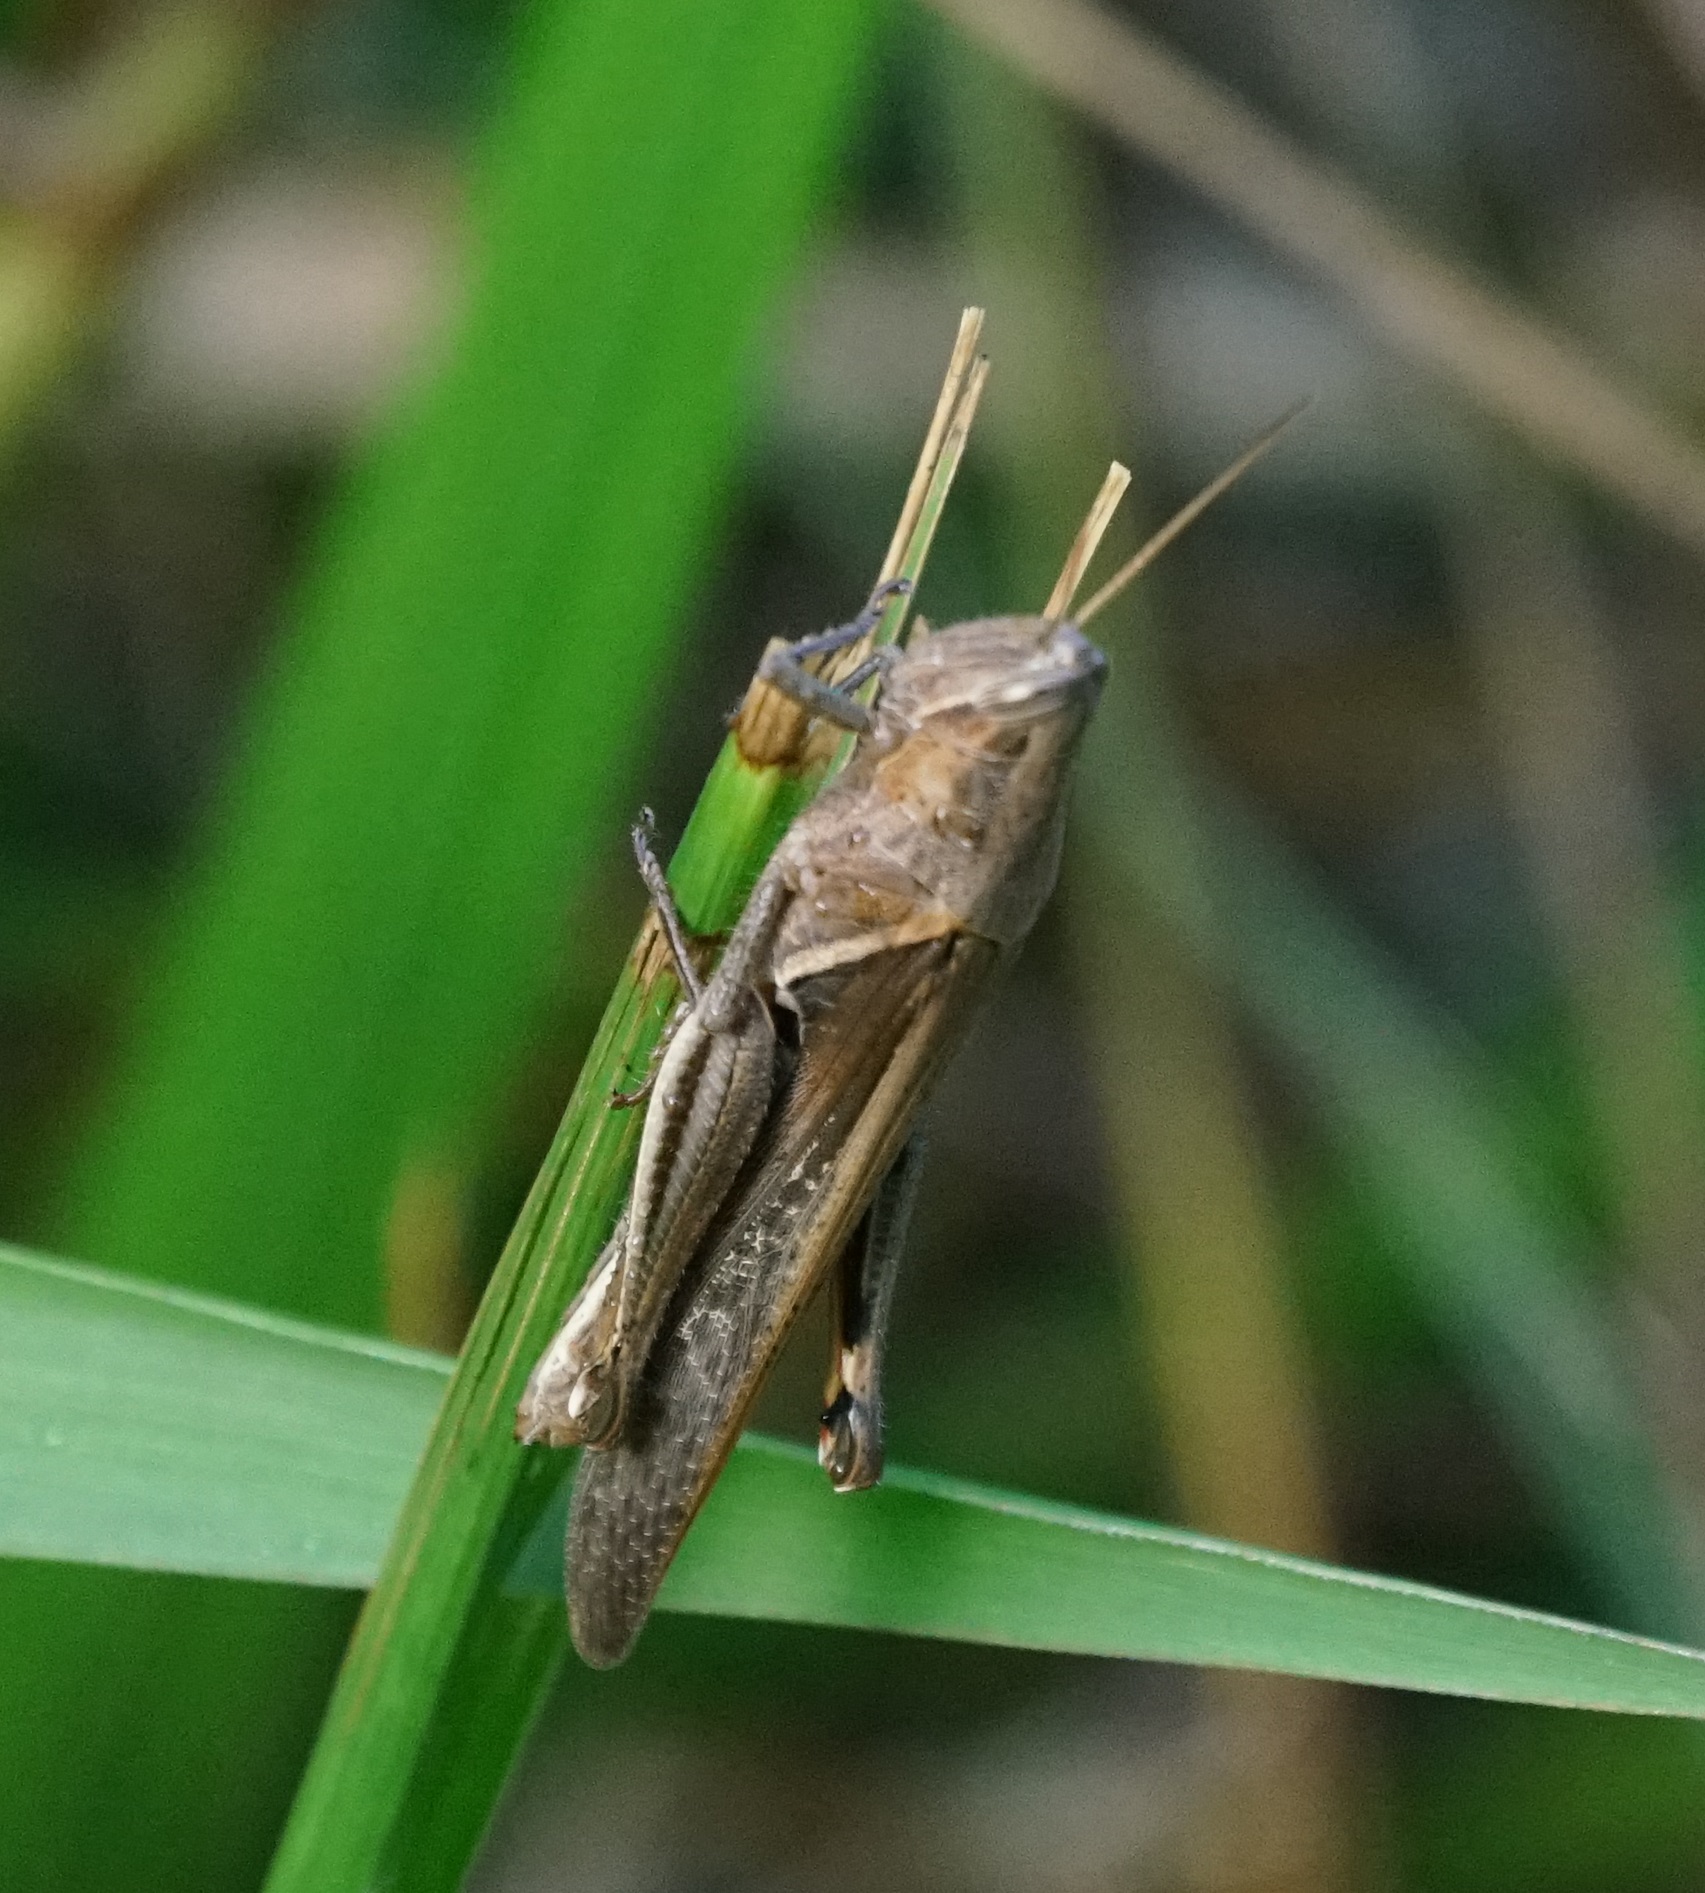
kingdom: Animalia
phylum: Arthropoda
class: Insecta
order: Orthoptera
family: Acrididae
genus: Stenocatantops
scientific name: Stenocatantops splendens
